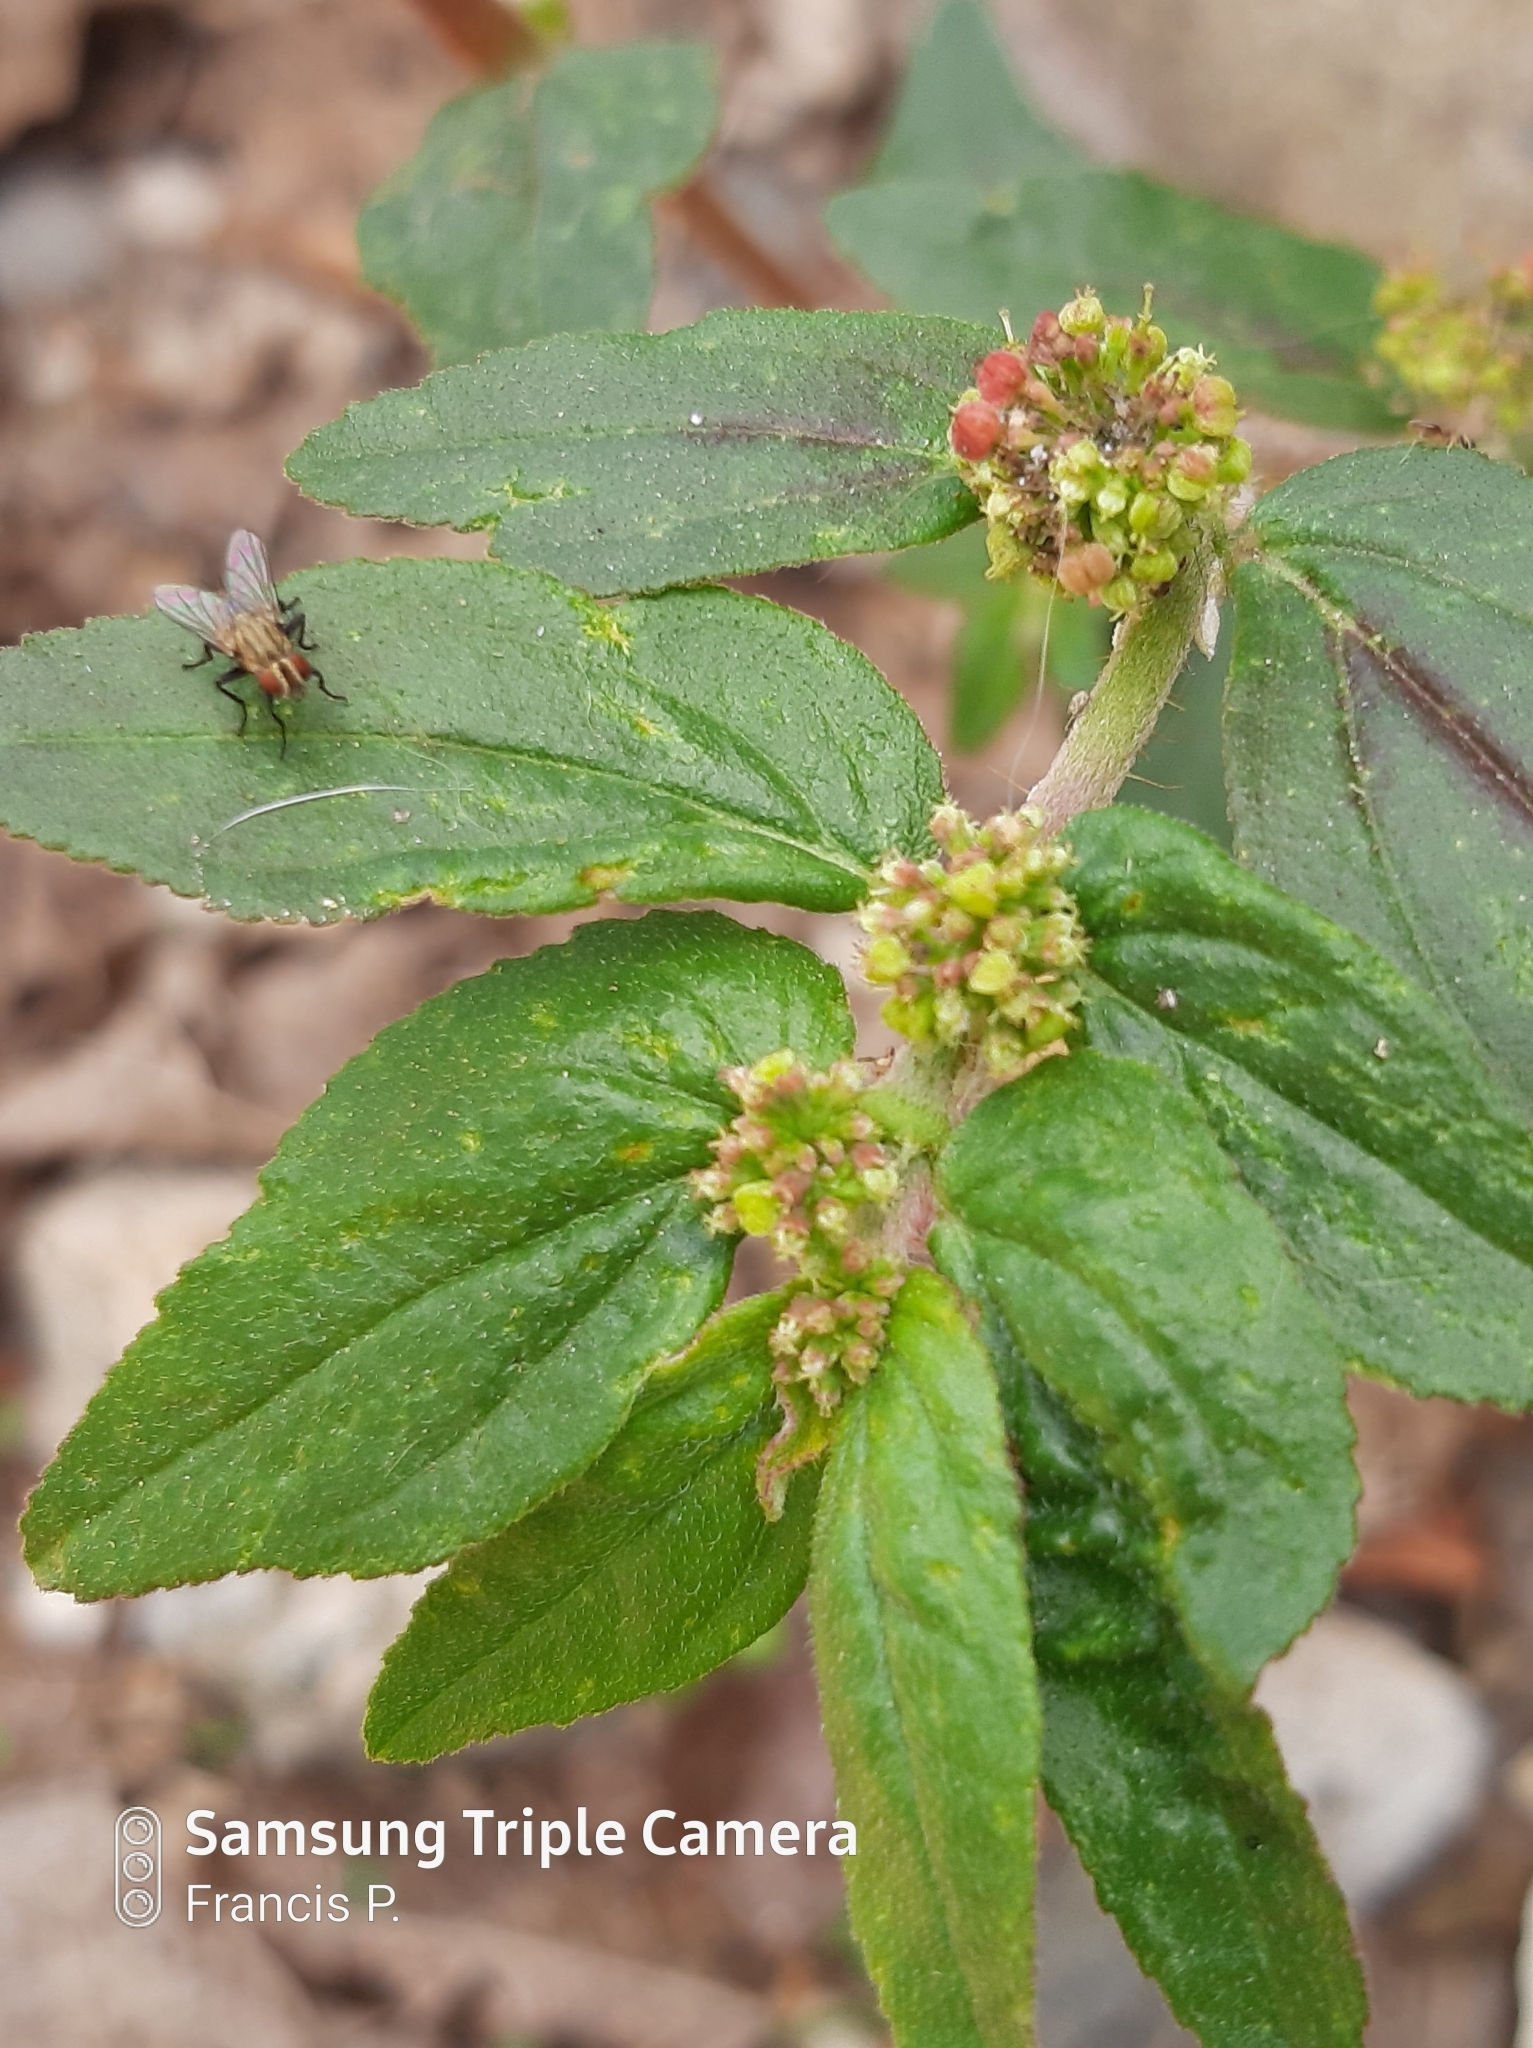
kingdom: Plantae
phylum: Tracheophyta
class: Magnoliopsida
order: Malpighiales
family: Euphorbiaceae
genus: Euphorbia
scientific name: Euphorbia hirta
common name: Pillpod sandmat
